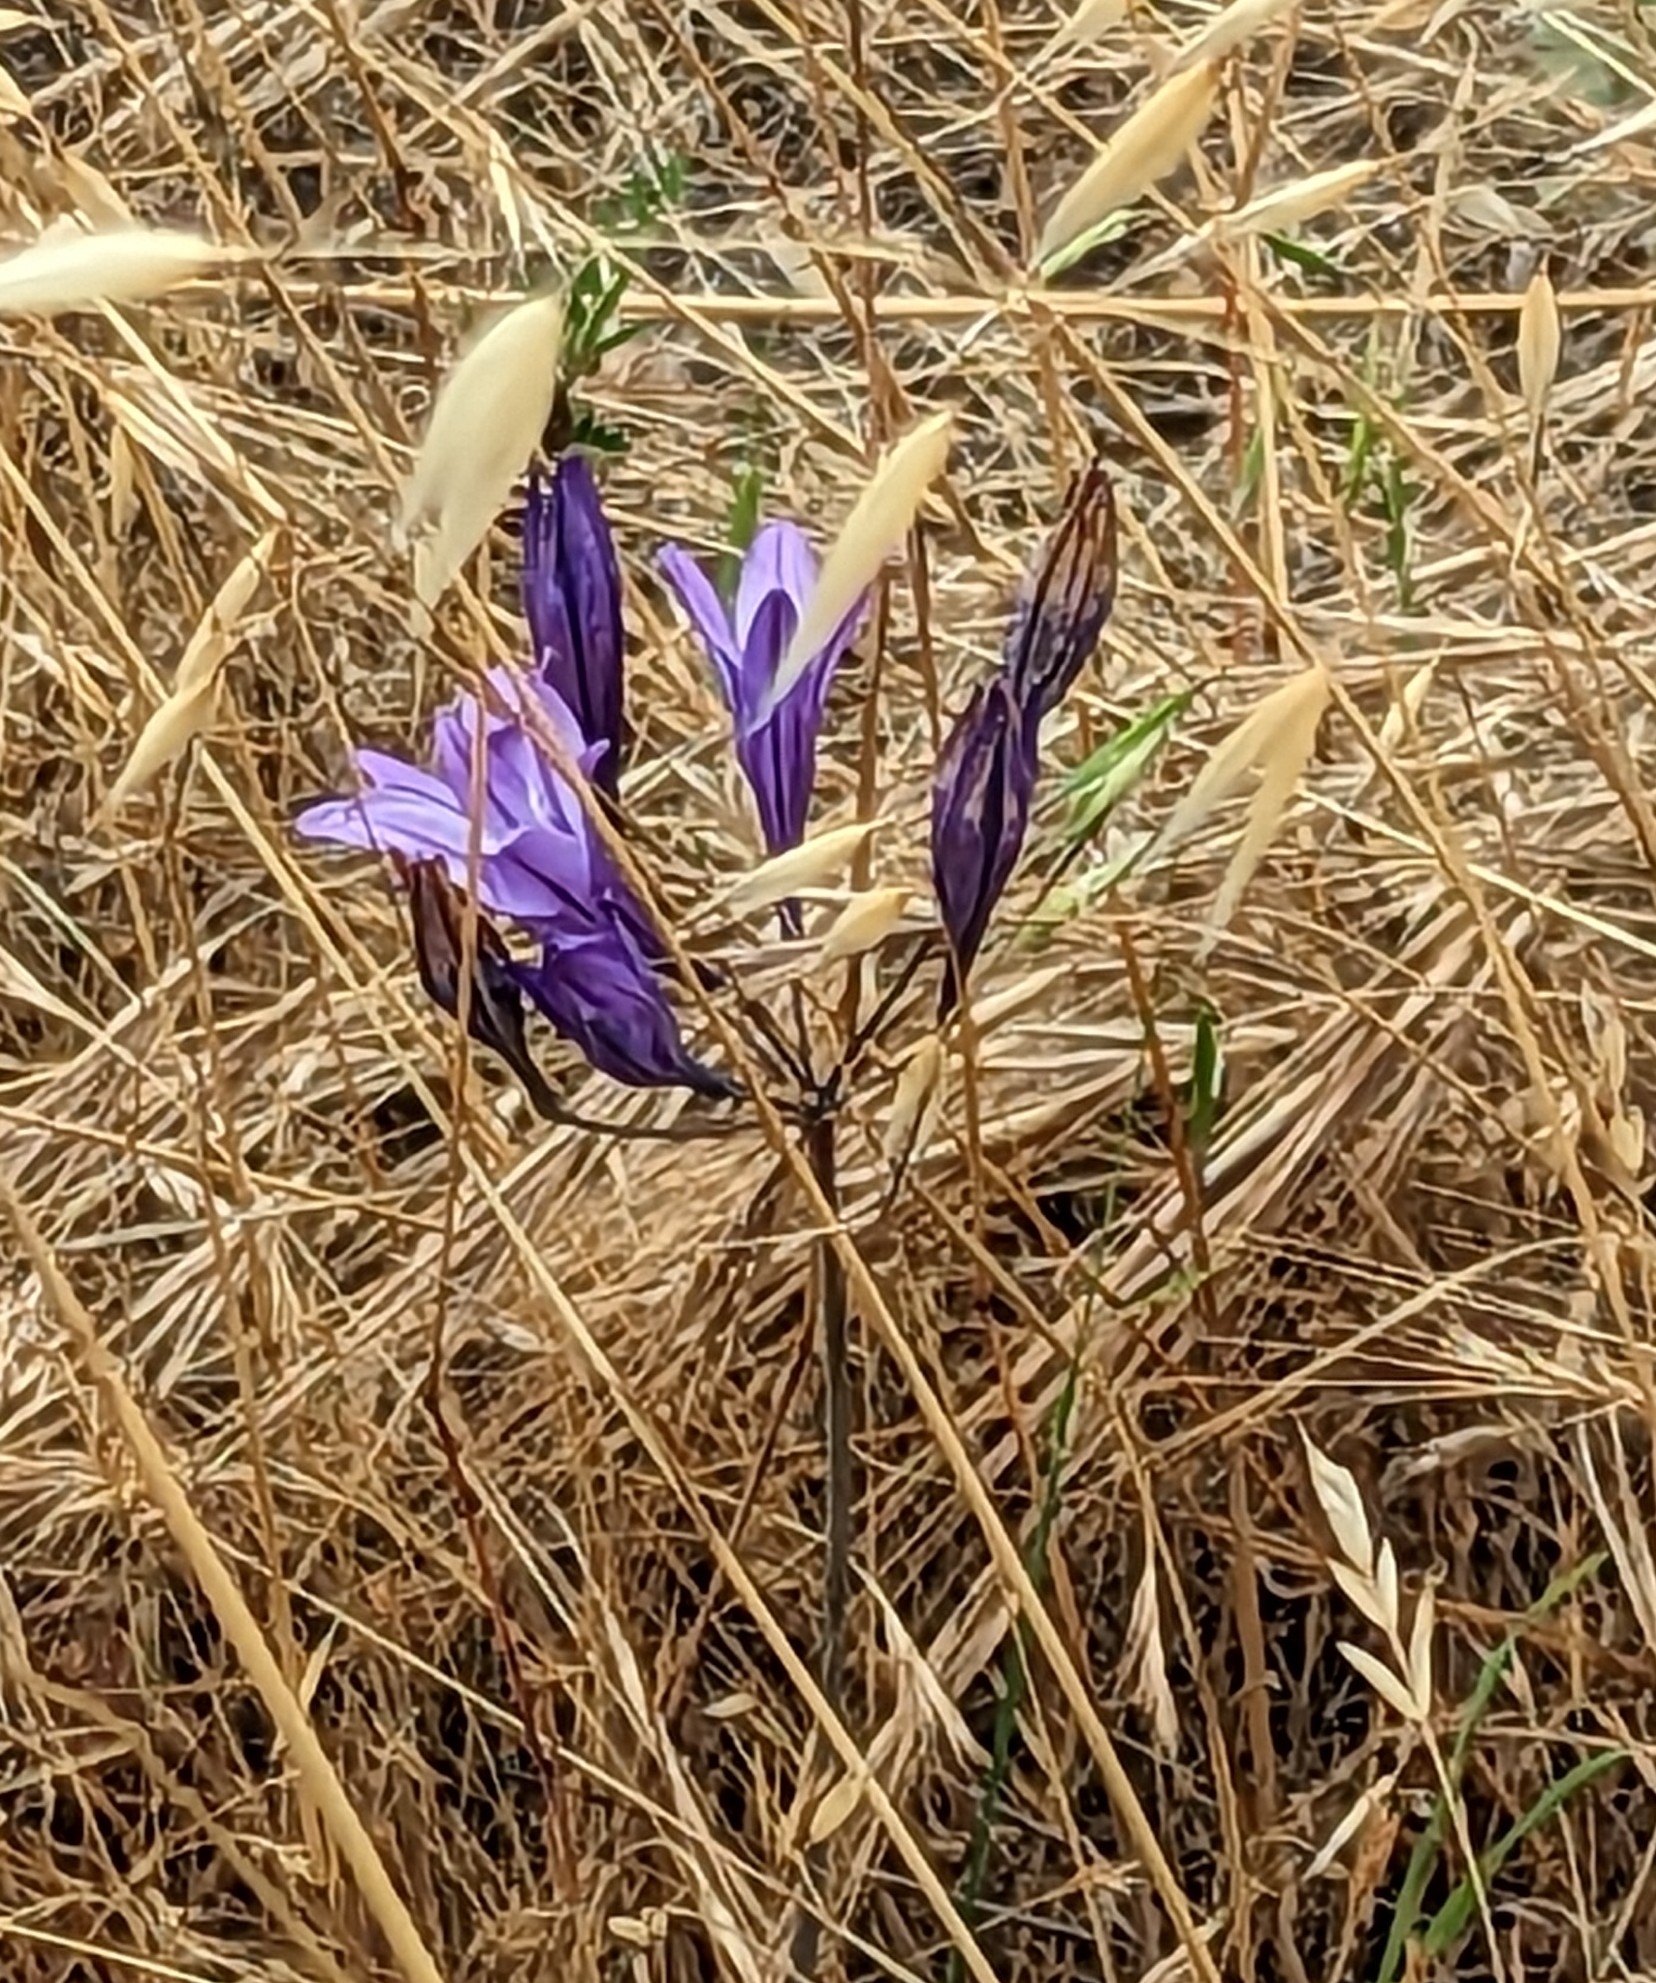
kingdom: Plantae
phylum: Tracheophyta
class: Liliopsida
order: Asparagales
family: Asparagaceae
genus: Triteleia
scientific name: Triteleia laxa
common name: Triplet-lily
